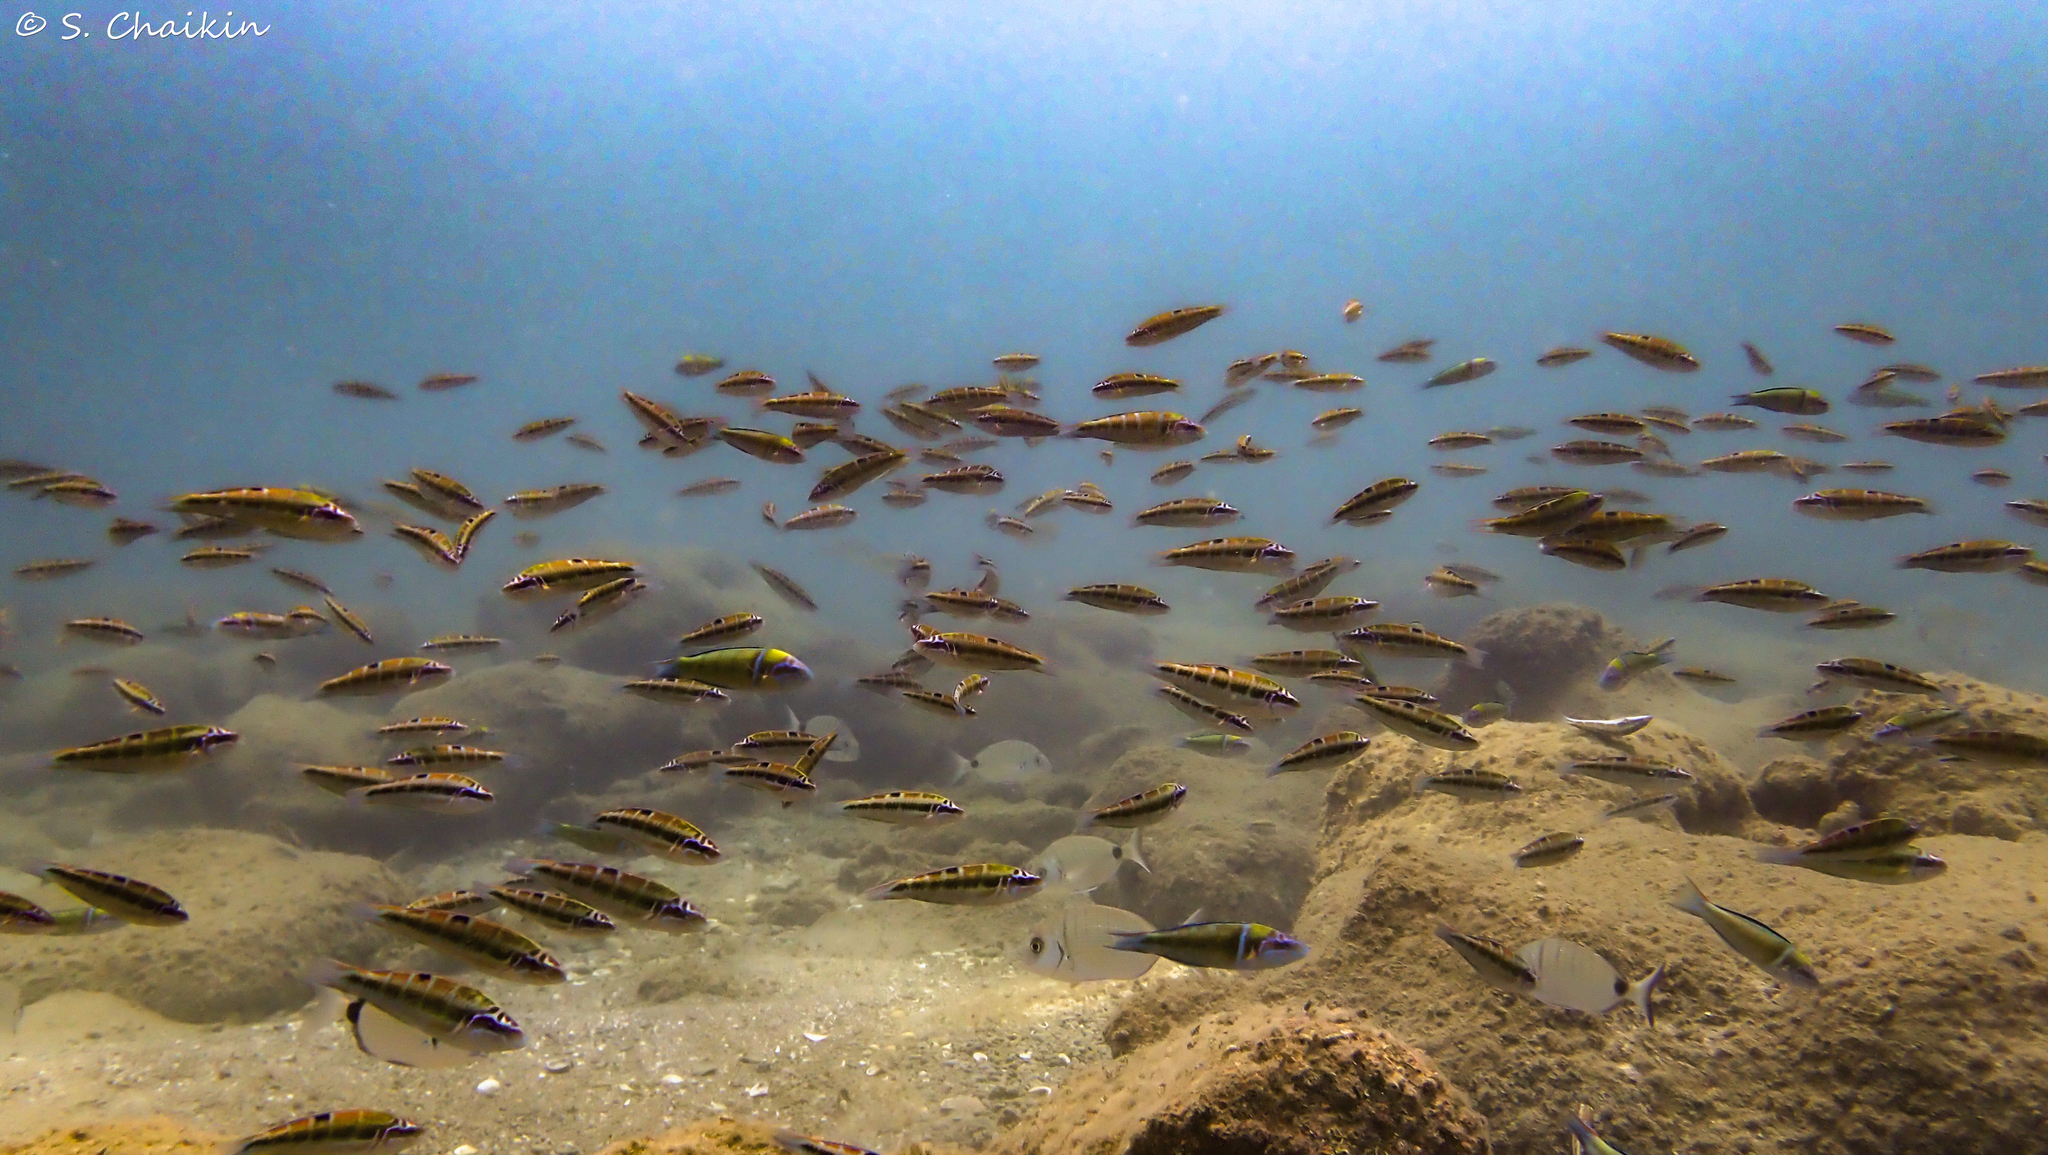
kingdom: Animalia
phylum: Chordata
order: Perciformes
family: Labridae
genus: Thalassoma
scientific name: Thalassoma pavo
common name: Ornate wrasse
